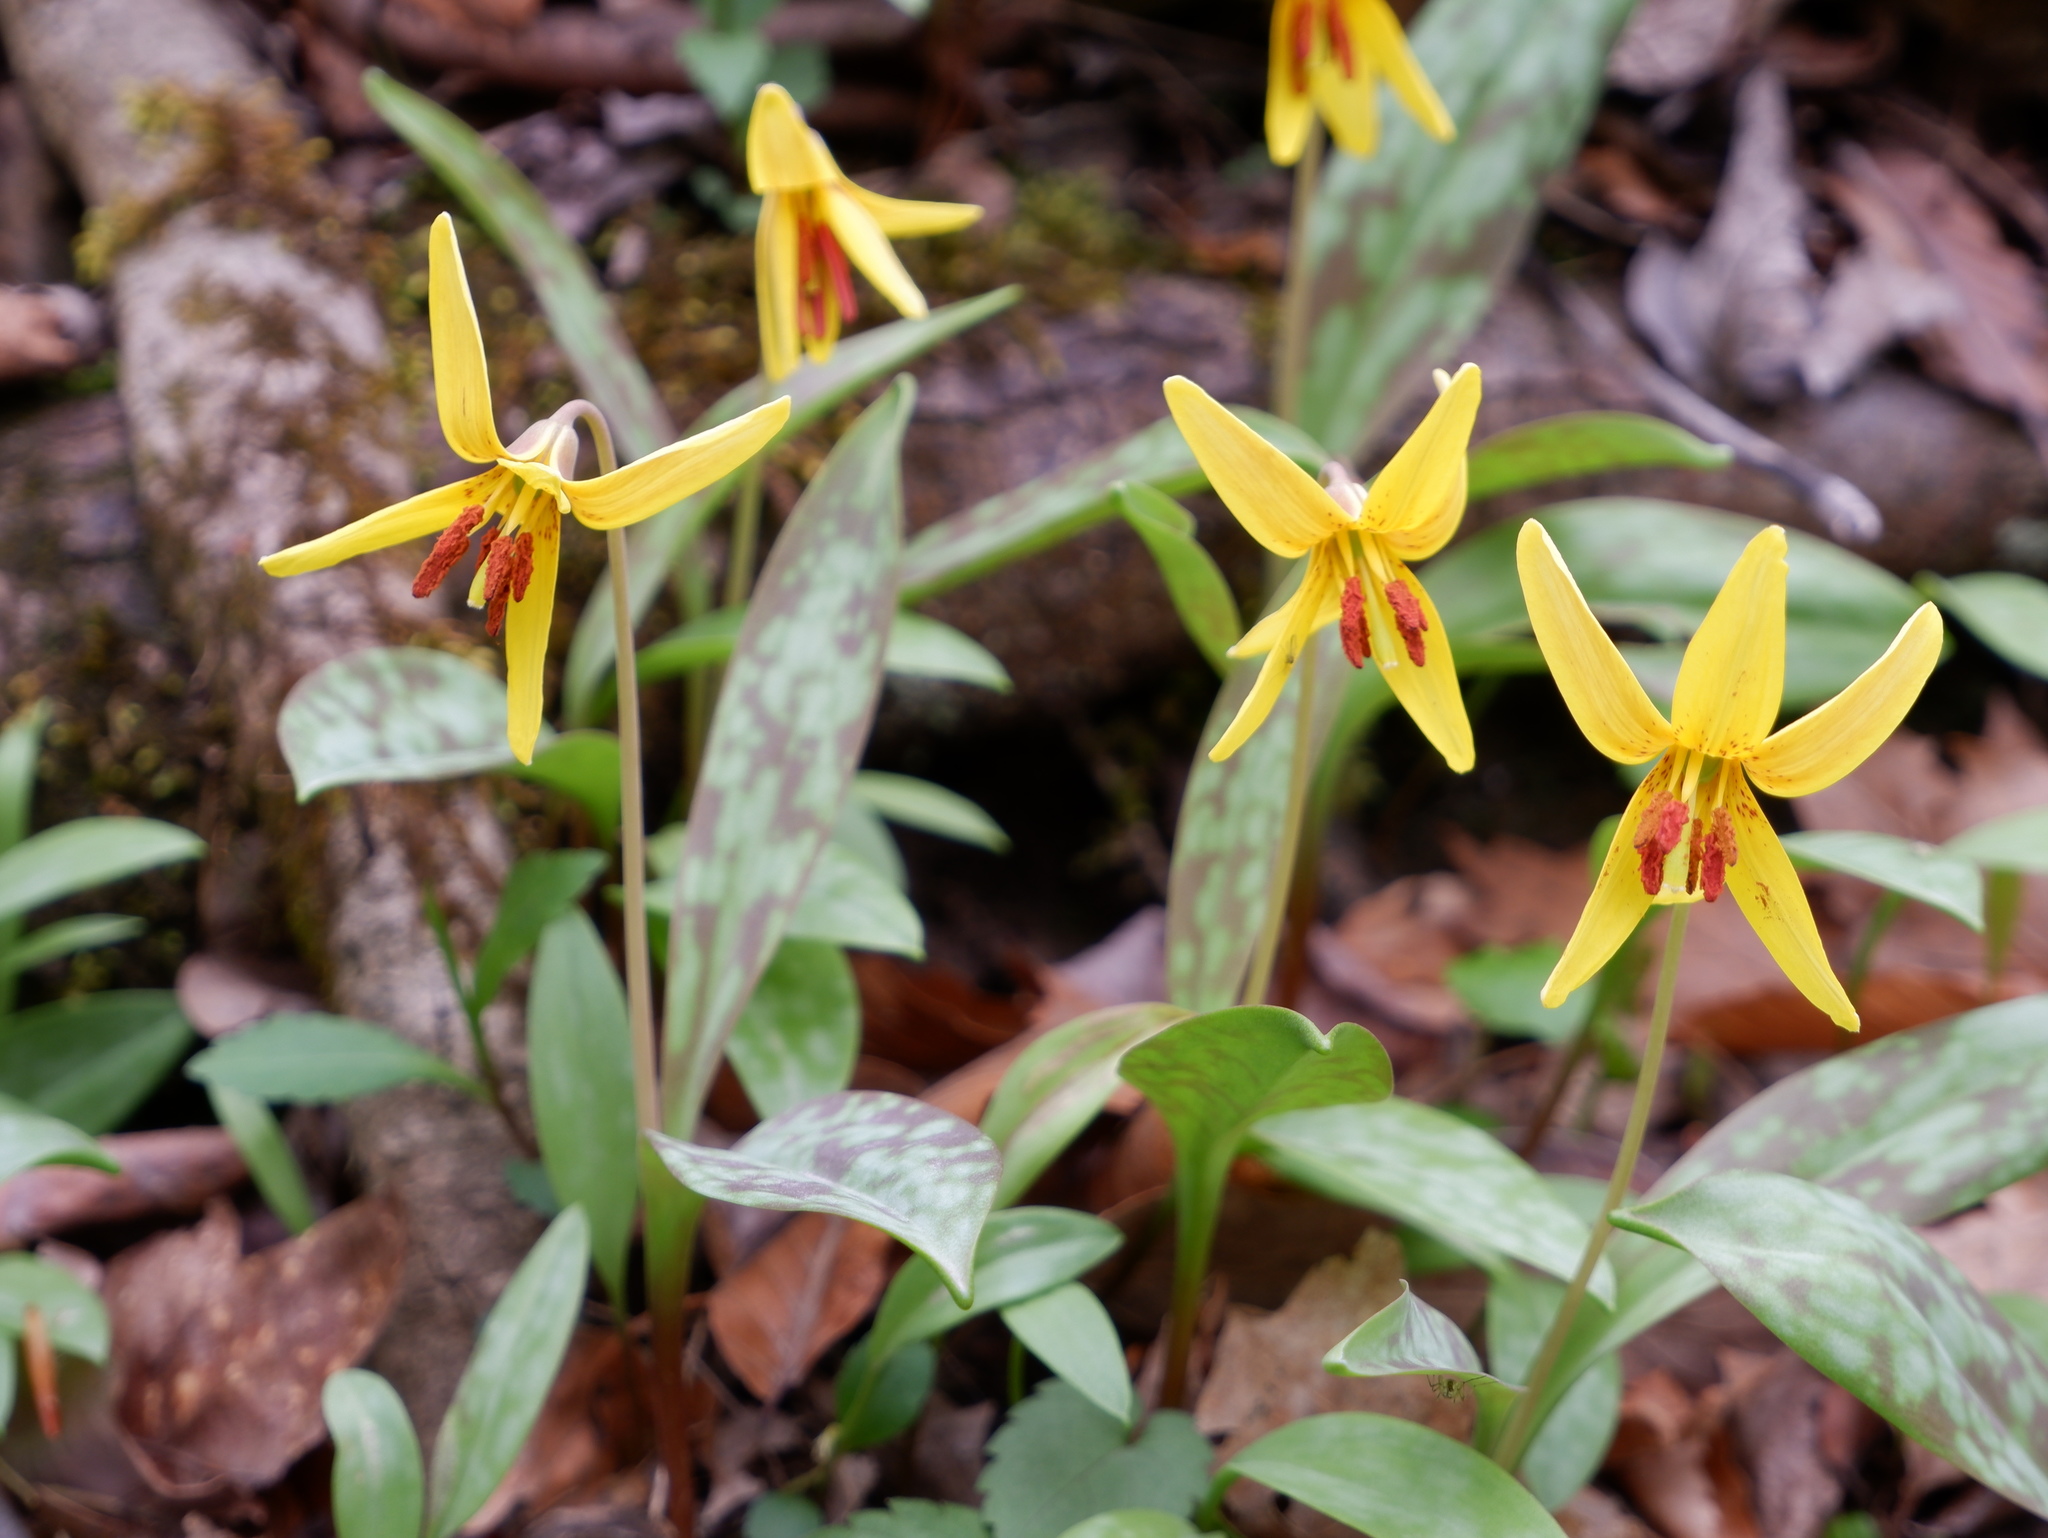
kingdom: Plantae
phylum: Tracheophyta
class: Liliopsida
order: Liliales
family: Liliaceae
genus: Erythronium
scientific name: Erythronium americanum
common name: Yellow adder's-tongue
